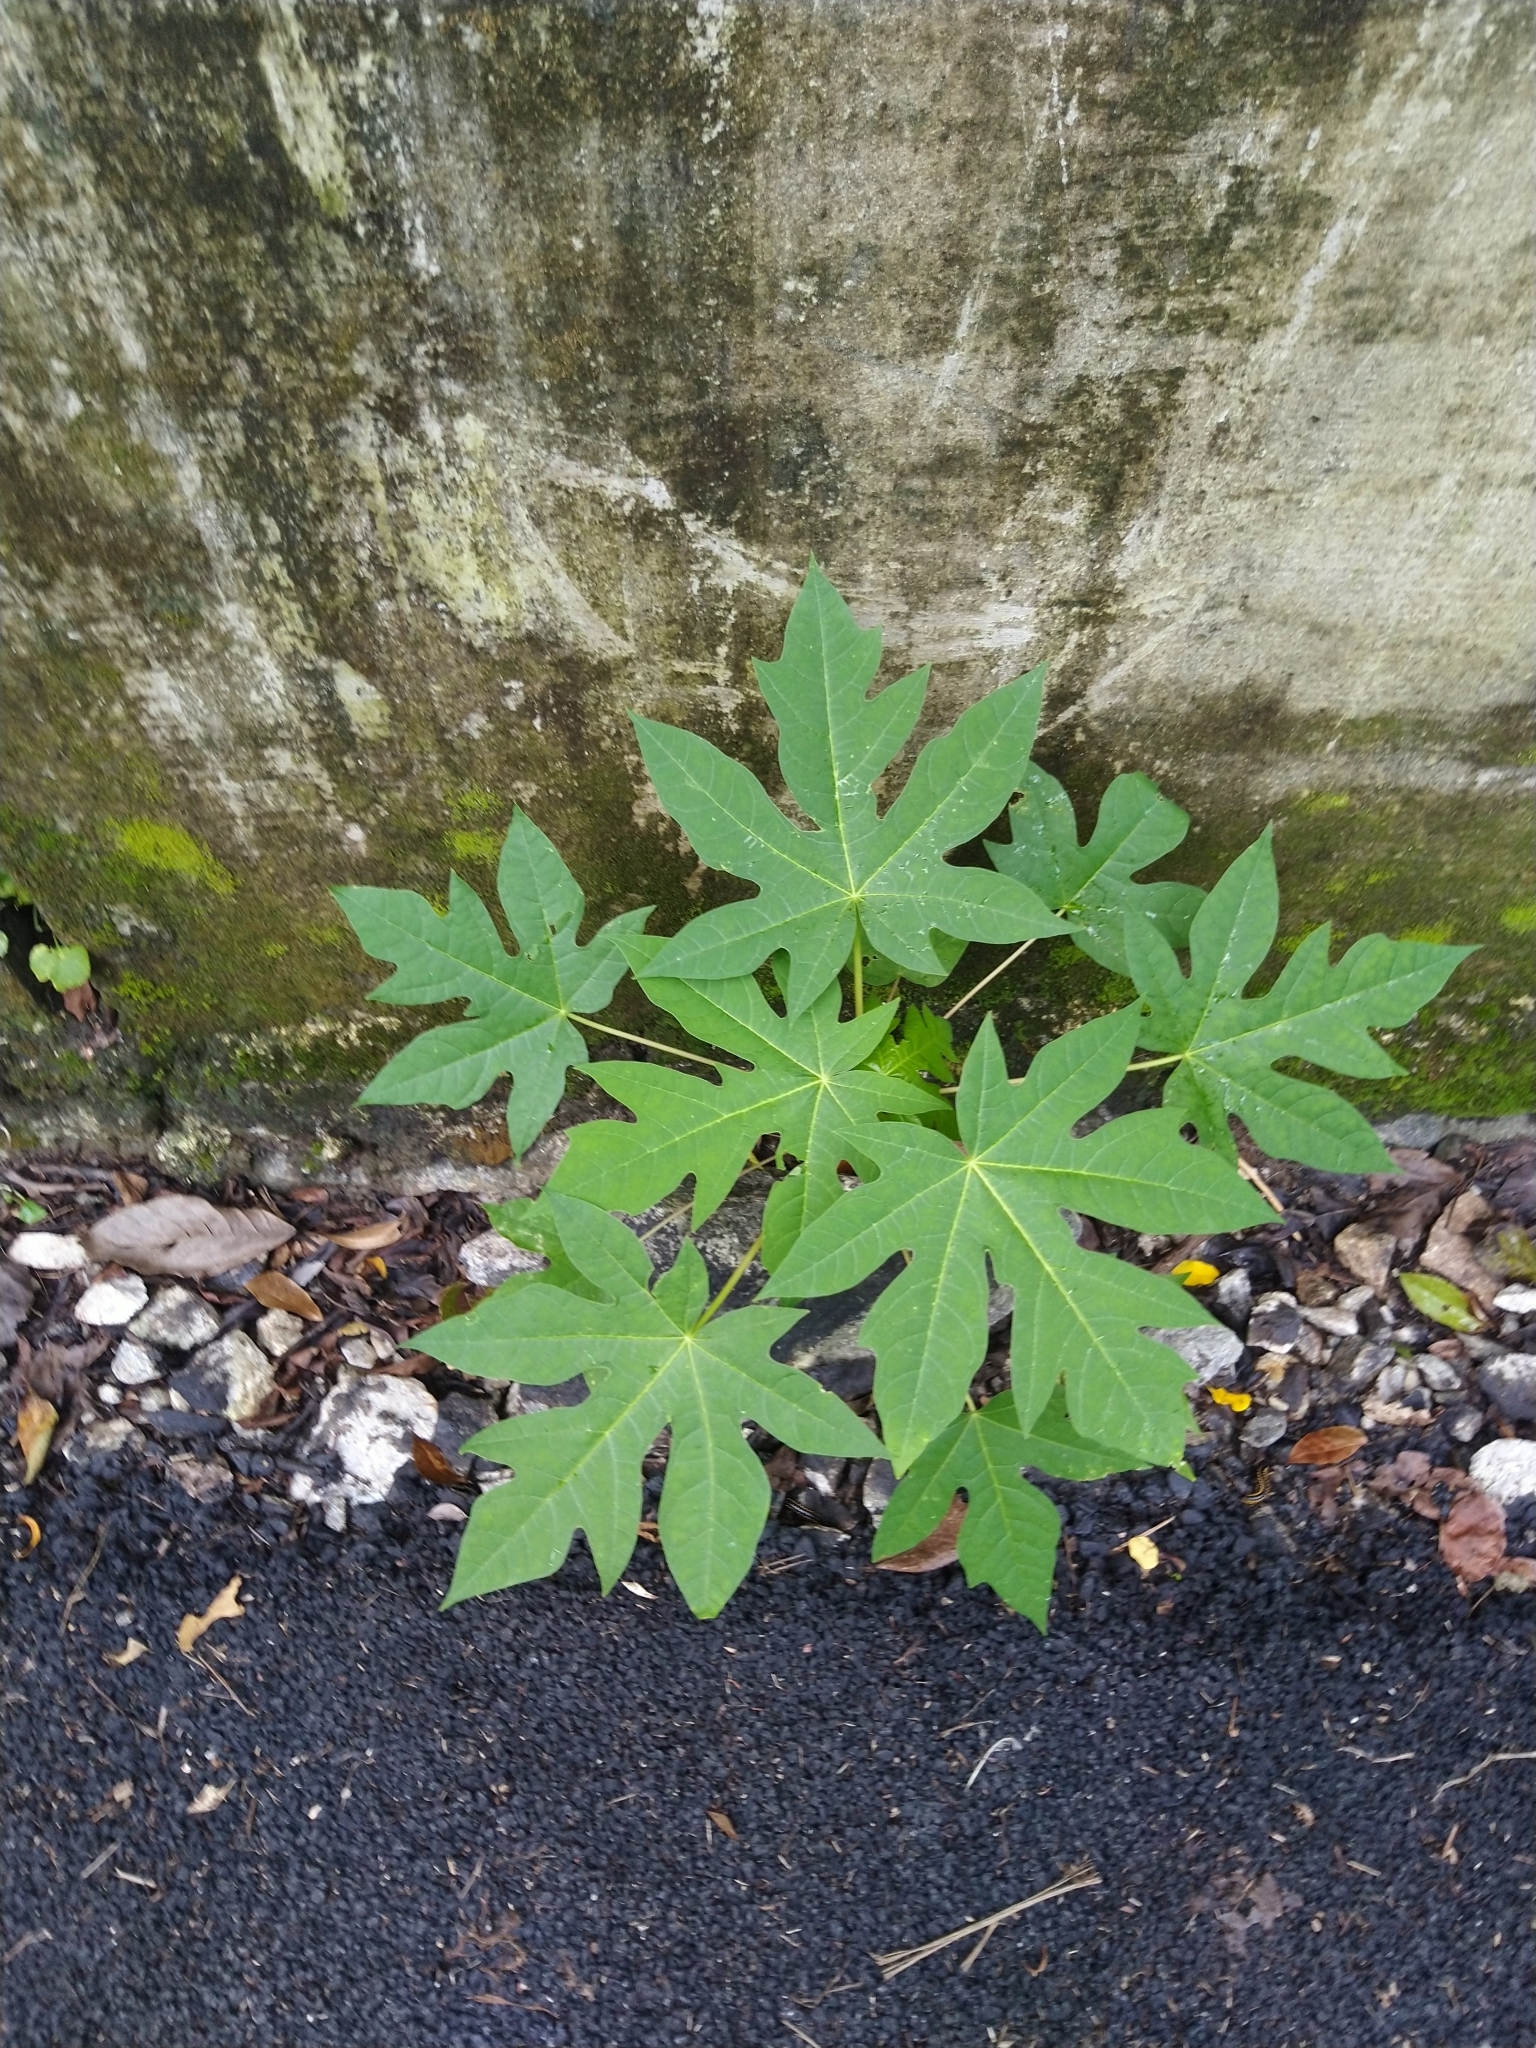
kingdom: Plantae
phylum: Tracheophyta
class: Magnoliopsida
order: Brassicales
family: Caricaceae
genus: Carica
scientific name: Carica papaya
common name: Papaya
